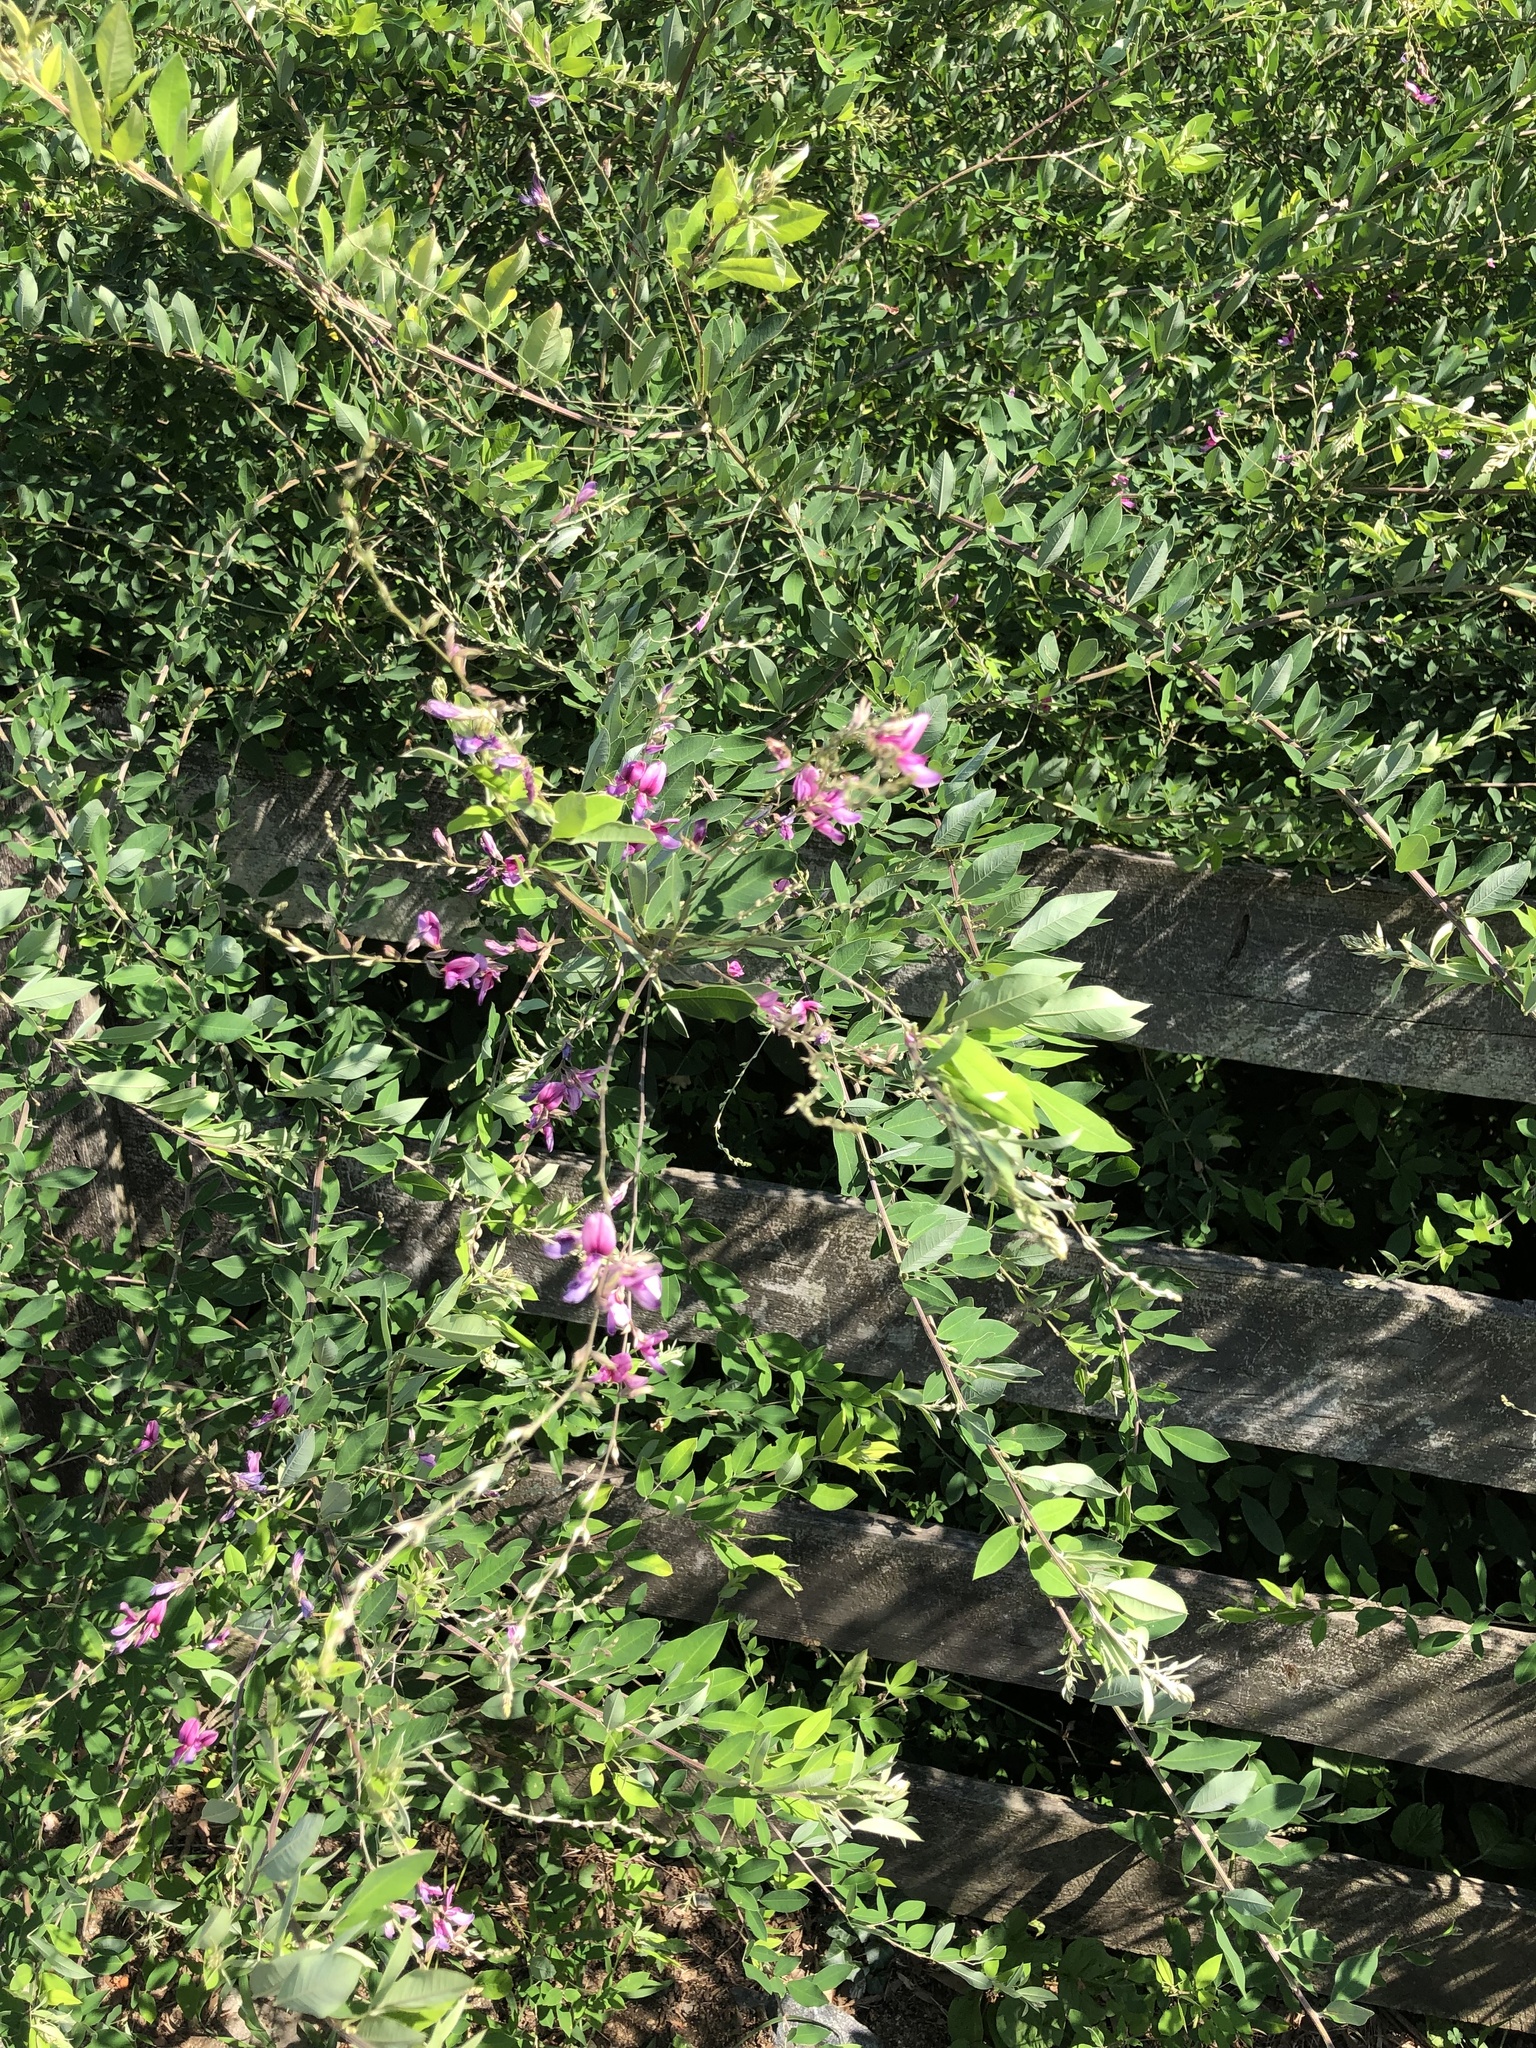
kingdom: Plantae
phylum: Tracheophyta
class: Magnoliopsida
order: Fabales
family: Fabaceae
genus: Lespedeza
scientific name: Lespedeza bicolor
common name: Shrub lespedeza
